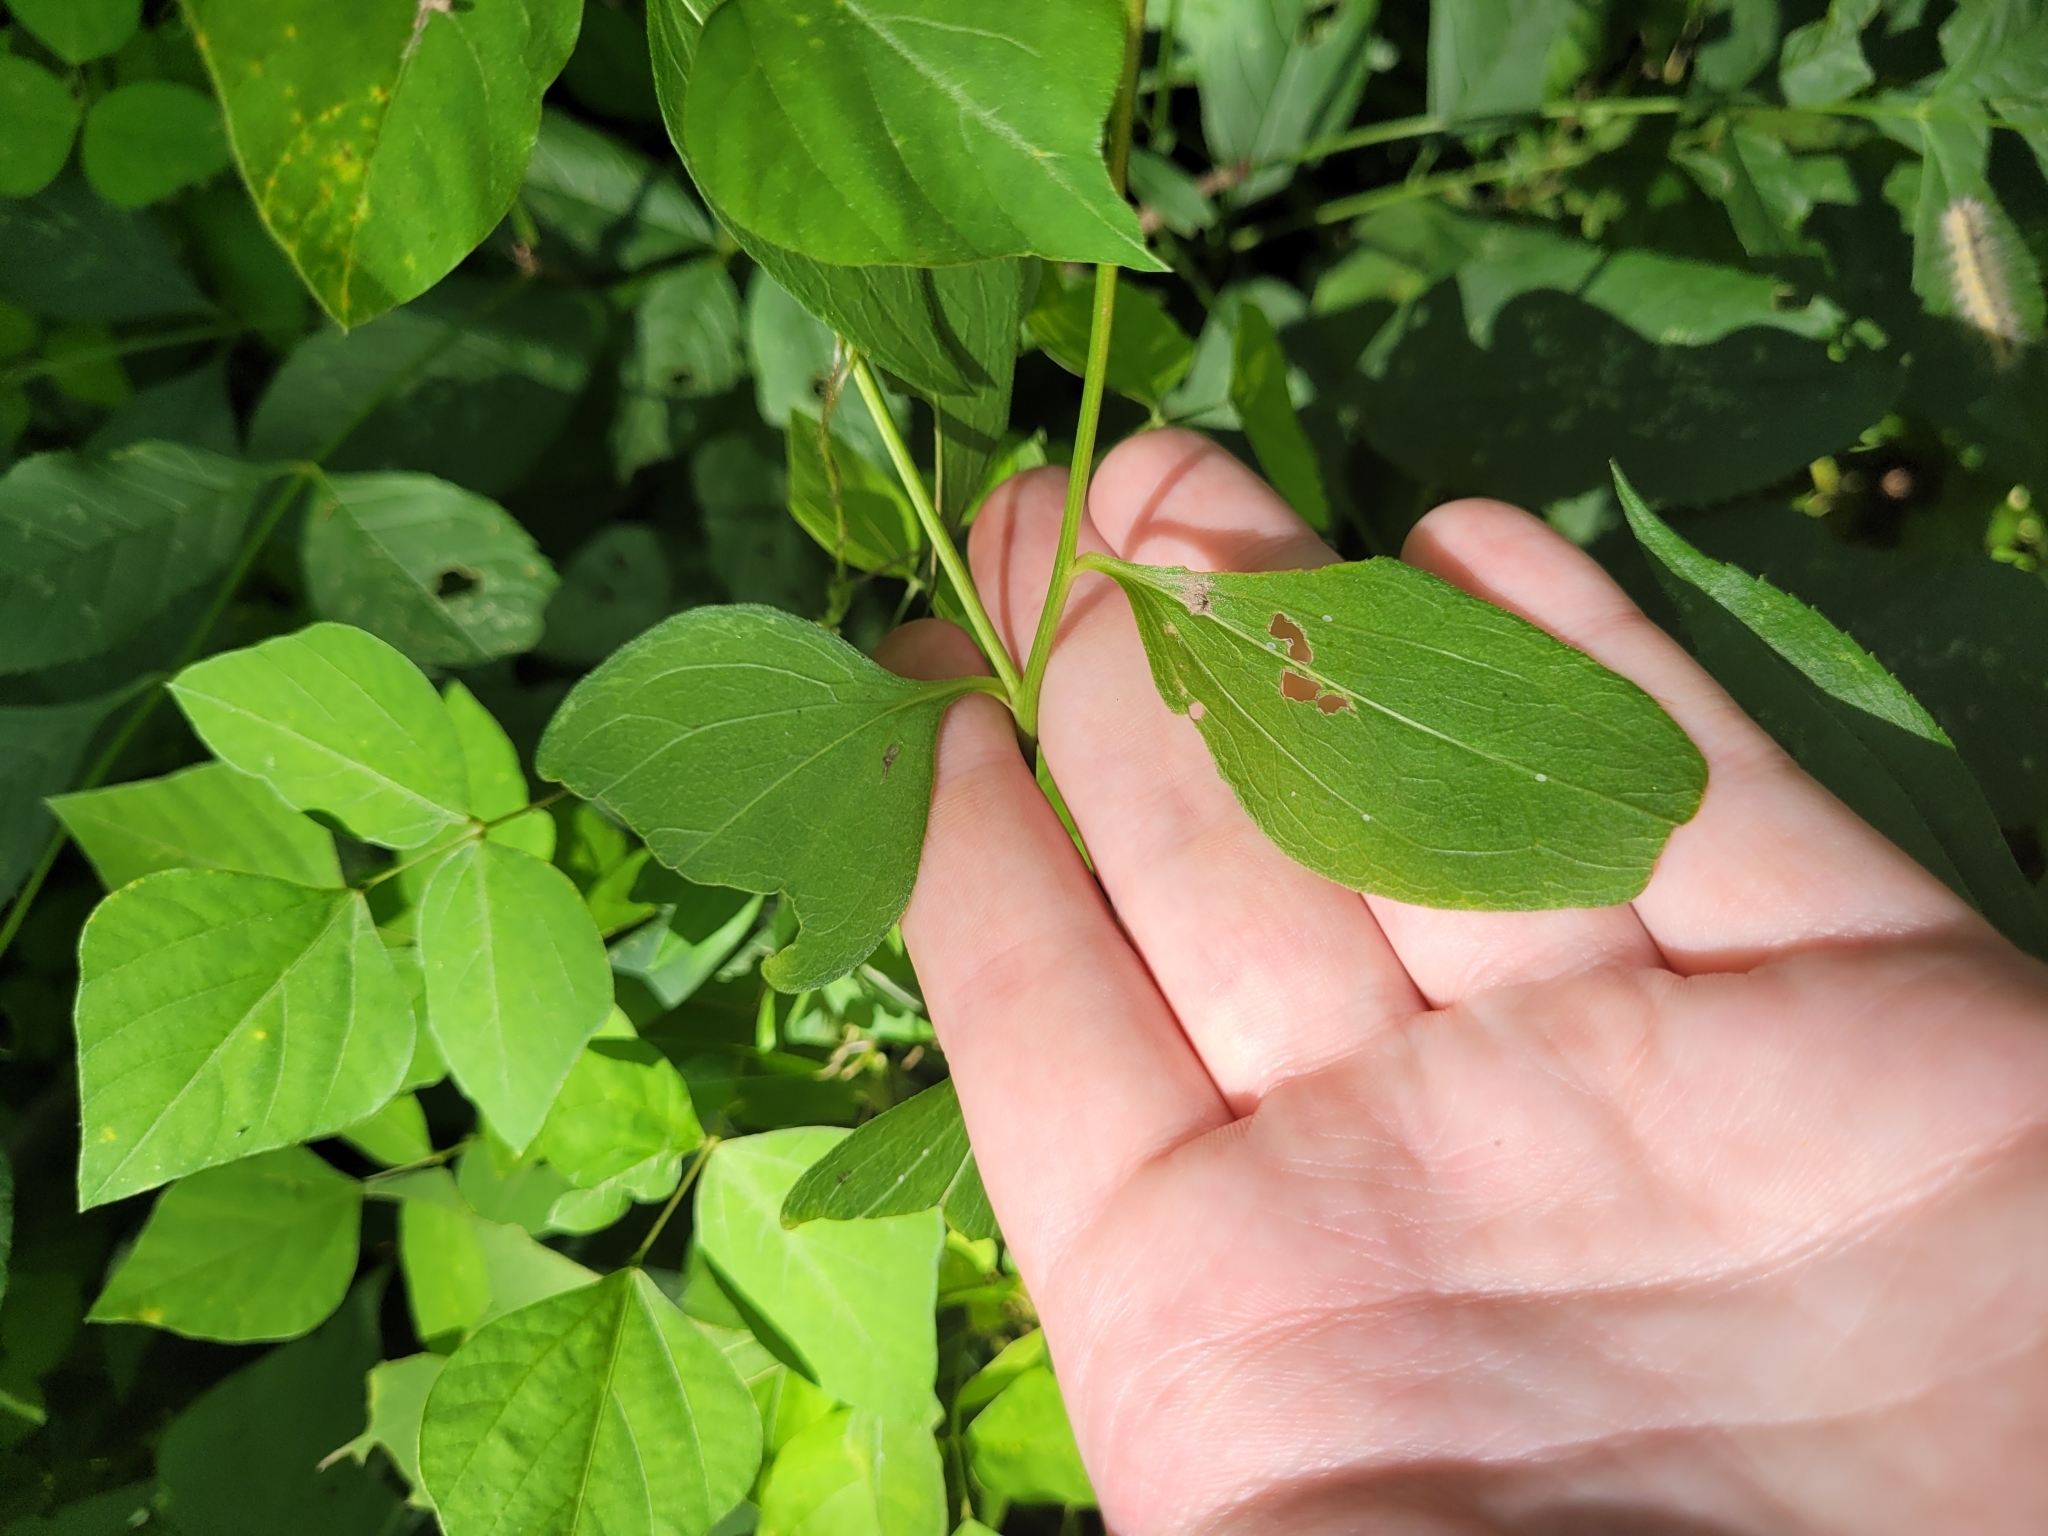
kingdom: Plantae
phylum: Tracheophyta
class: Magnoliopsida
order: Asterales
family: Asteraceae
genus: Rudbeckia
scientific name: Rudbeckia laciniata
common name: Coneflower
